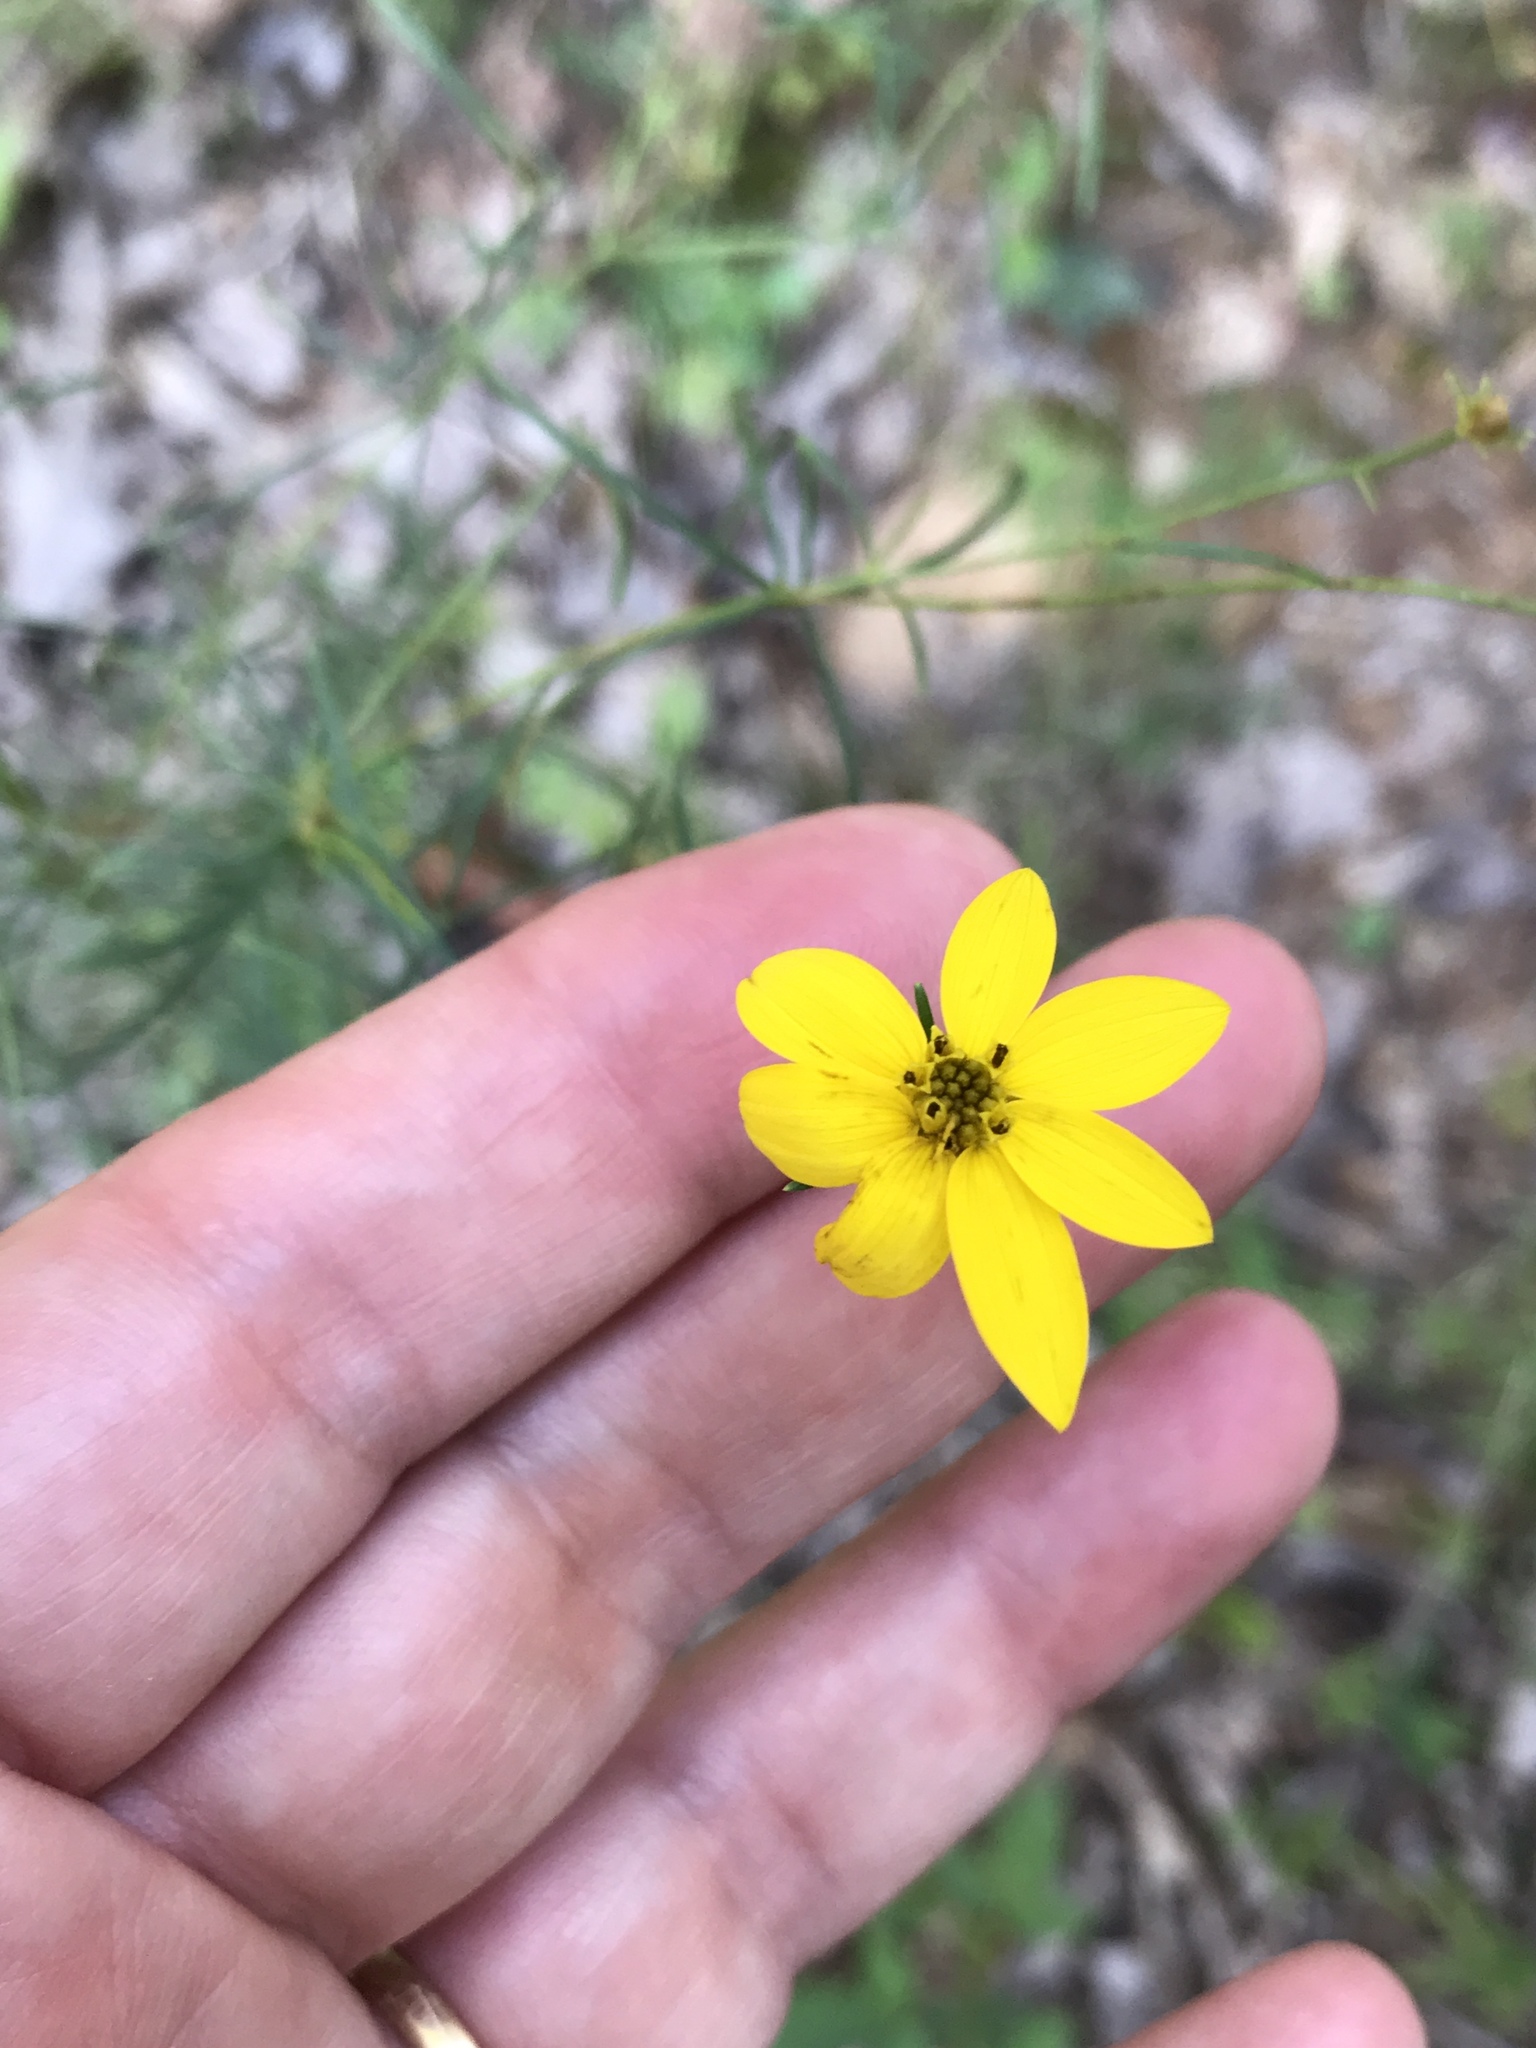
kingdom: Plantae
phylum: Tracheophyta
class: Magnoliopsida
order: Asterales
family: Asteraceae
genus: Coreopsis
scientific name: Coreopsis verticillata
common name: Whorled tickseed
